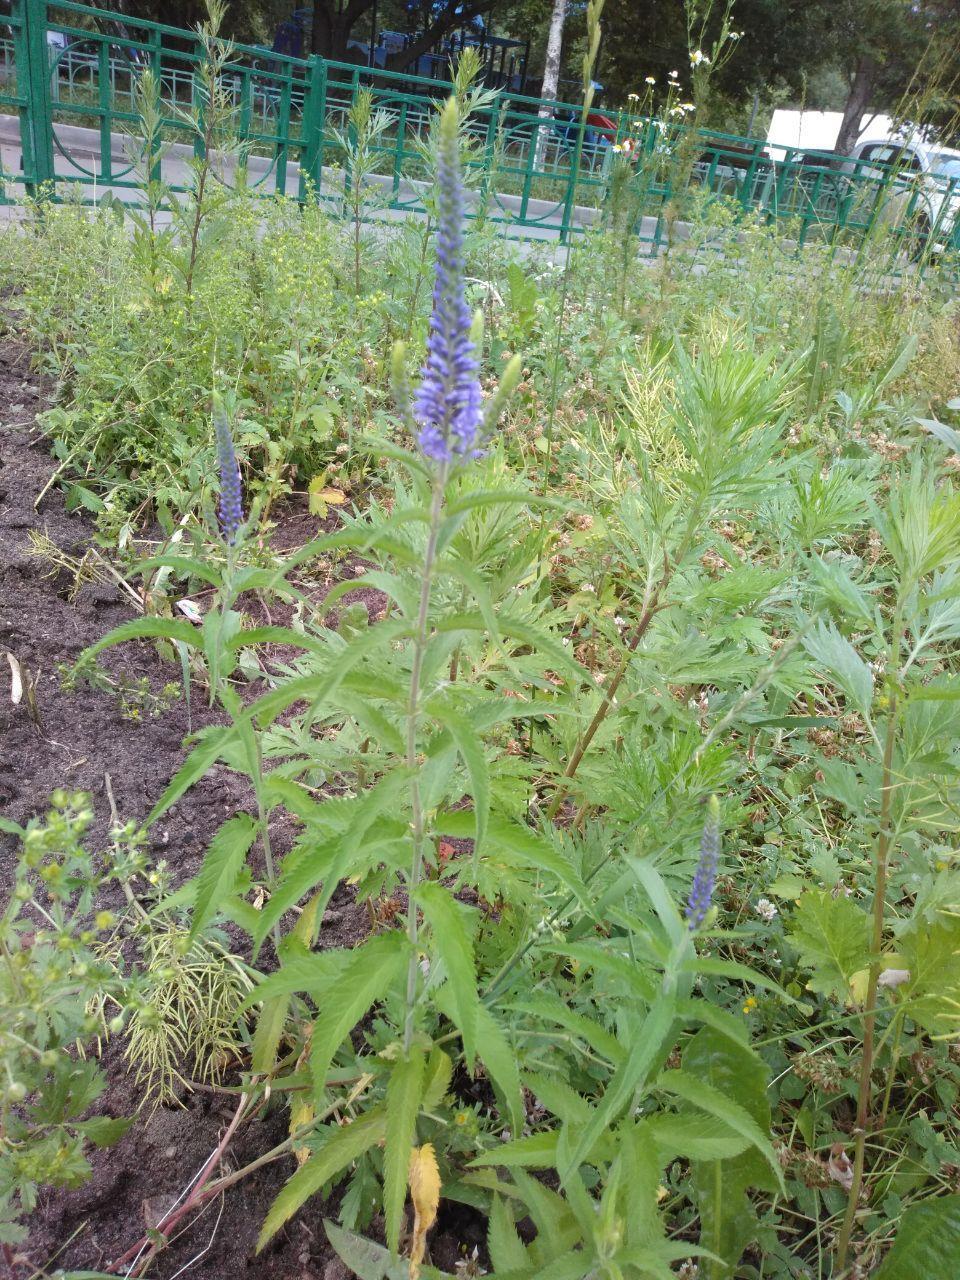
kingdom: Plantae
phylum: Tracheophyta
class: Magnoliopsida
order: Lamiales
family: Plantaginaceae
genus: Veronica
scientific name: Veronica longifolia
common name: Garden speedwell
